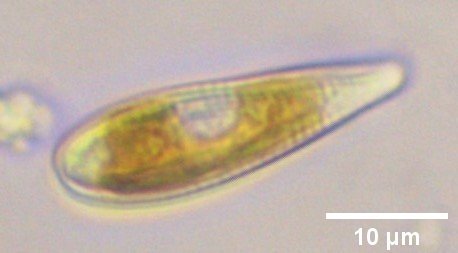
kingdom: Chromista
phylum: Ochrophyta
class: Bacillariophyceae
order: Cymbellales
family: Rhoicospheniaceae
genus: Rhoicosphenia
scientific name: Rhoicosphenia abbreviata
